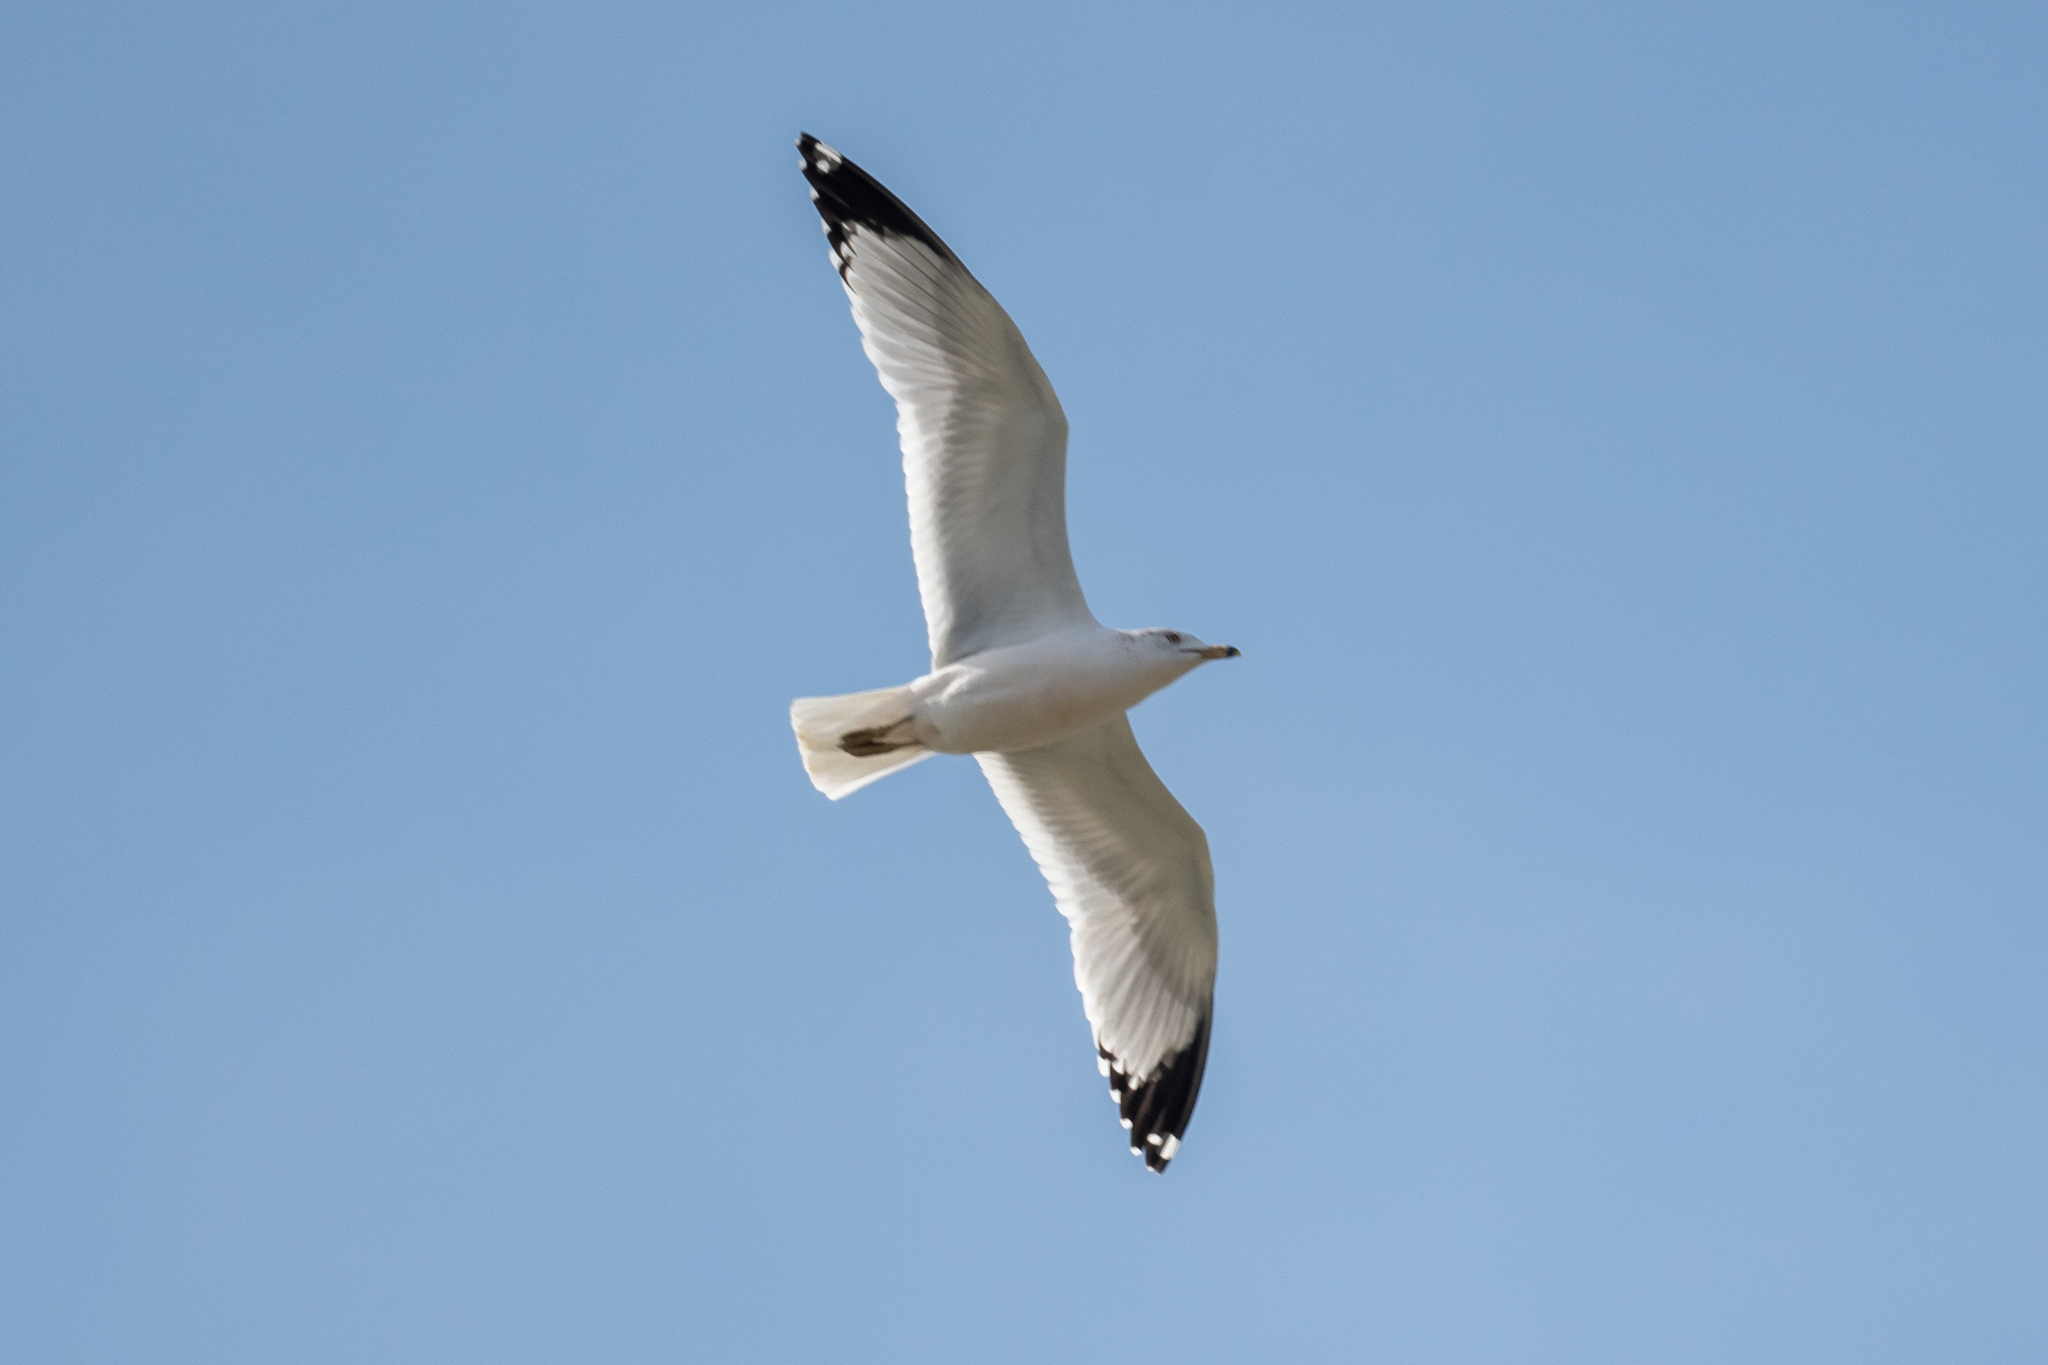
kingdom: Animalia
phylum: Chordata
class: Aves
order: Charadriiformes
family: Laridae
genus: Larus
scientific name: Larus delawarensis
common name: Ring-billed gull
